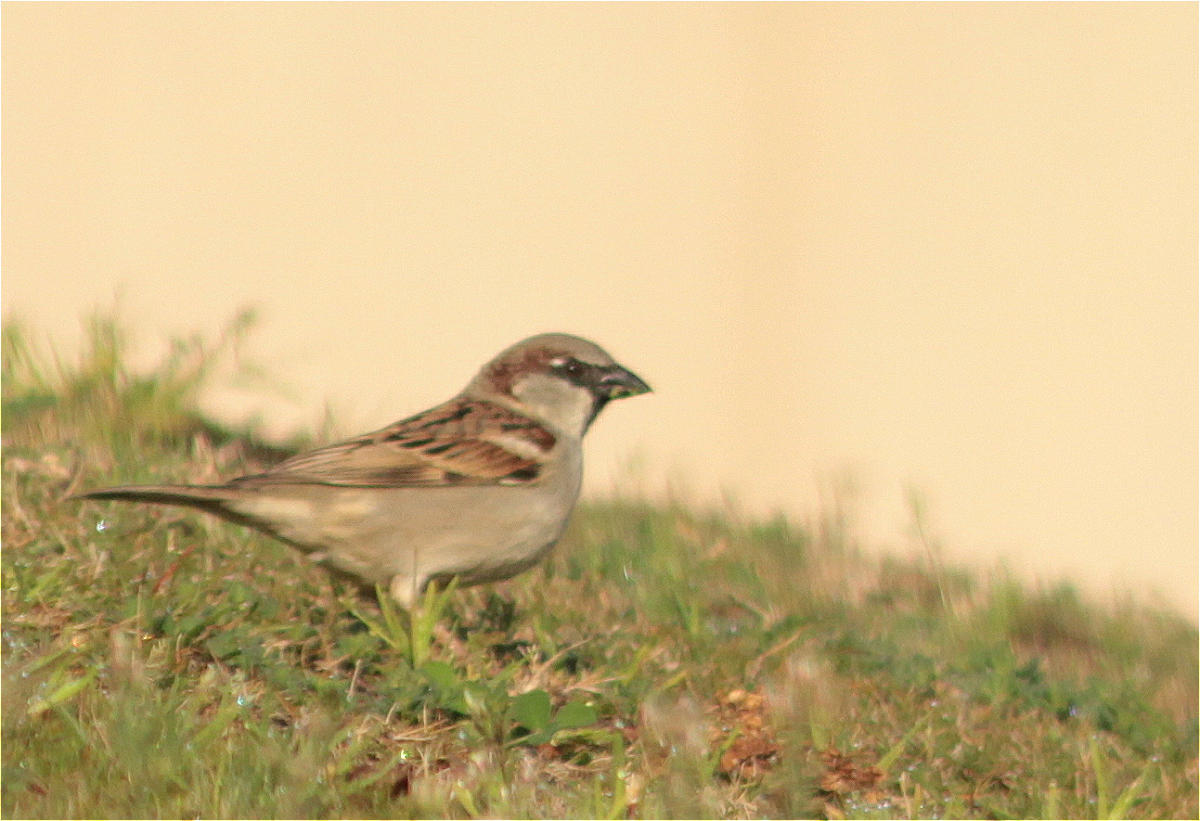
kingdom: Animalia
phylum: Chordata
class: Aves
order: Passeriformes
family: Passeridae
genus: Passer
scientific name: Passer domesticus
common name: House sparrow
